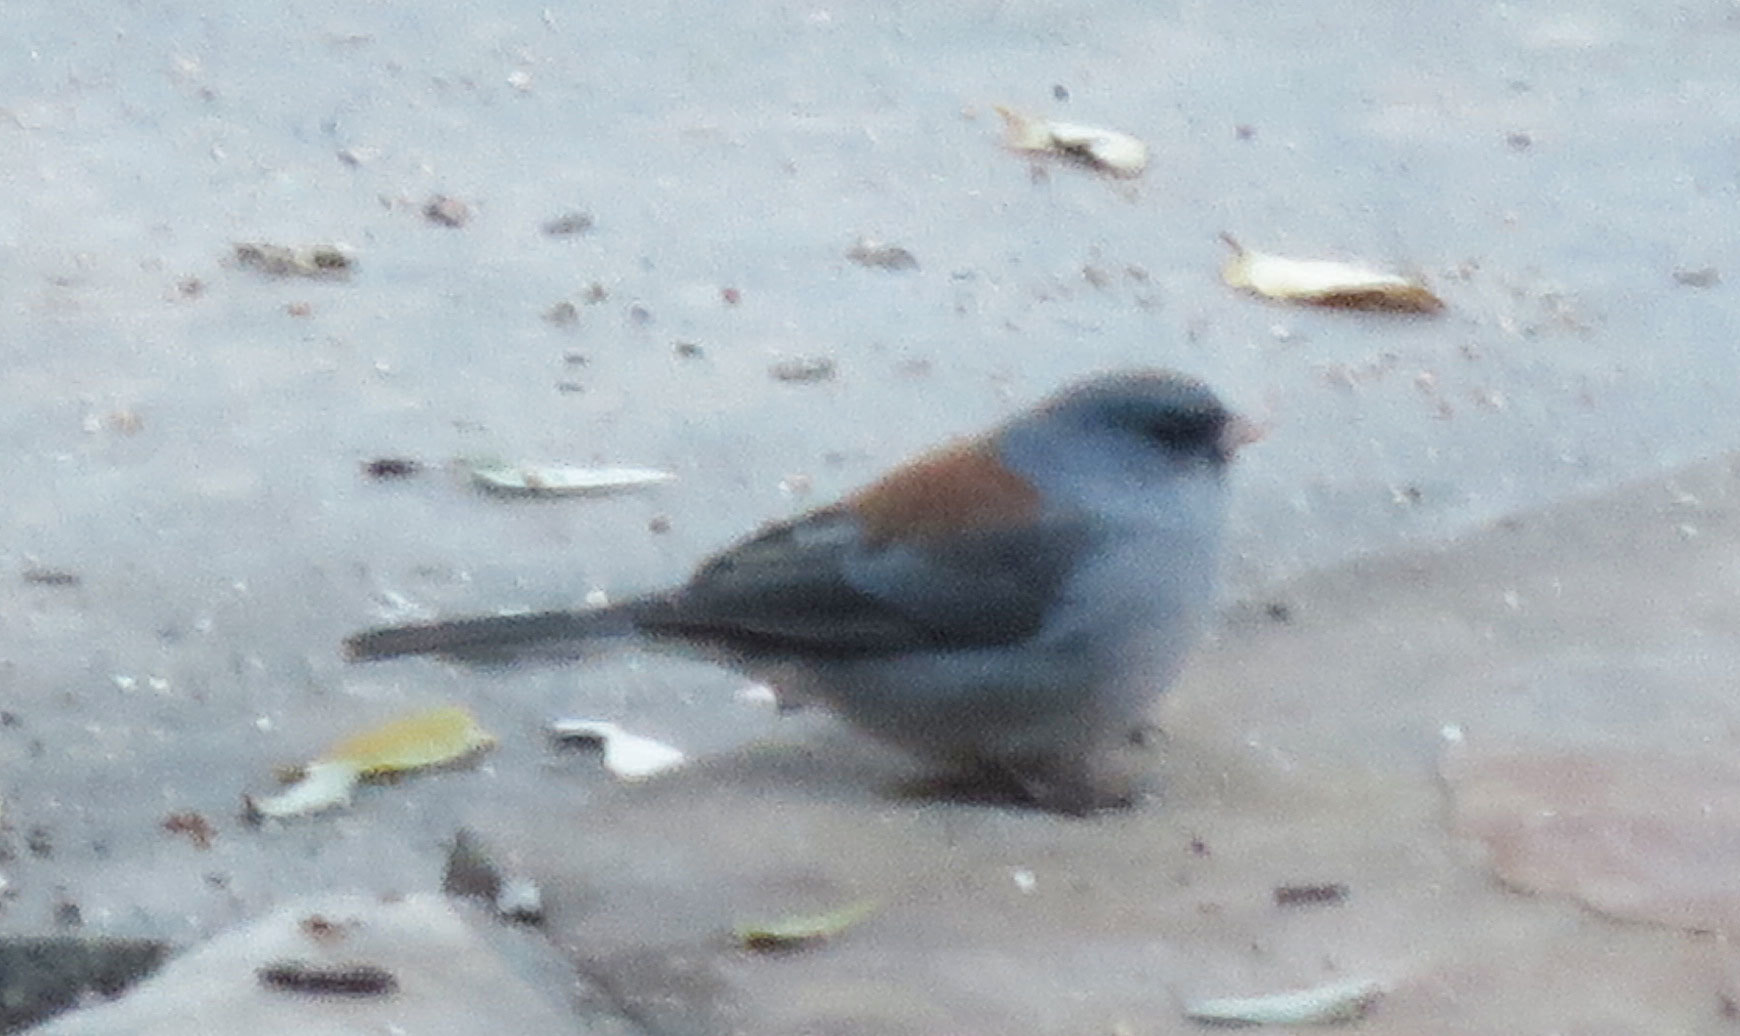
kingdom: Animalia
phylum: Chordata
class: Aves
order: Passeriformes
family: Passerellidae
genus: Junco
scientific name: Junco hyemalis
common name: Dark-eyed junco
